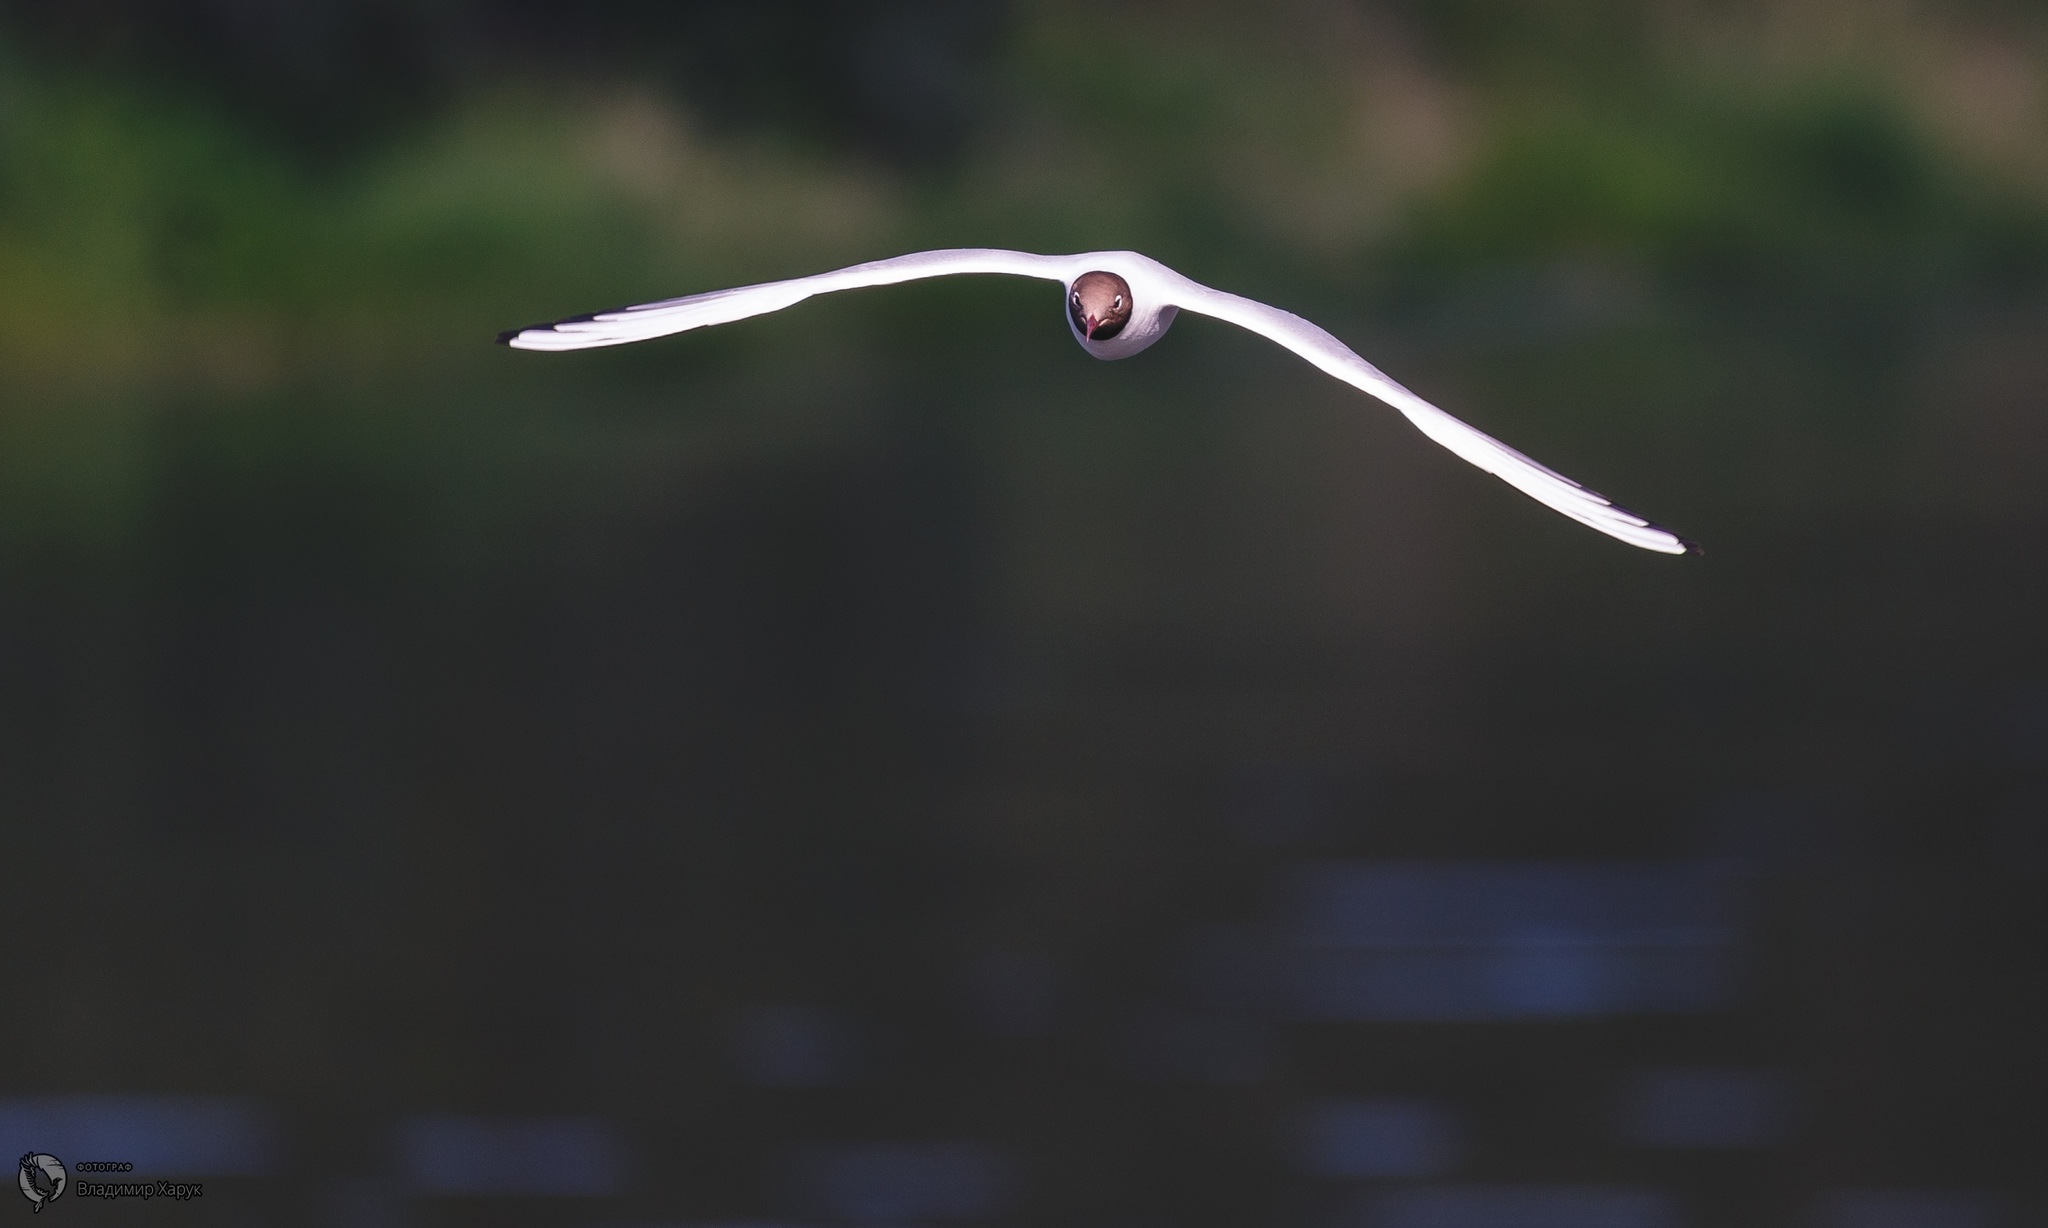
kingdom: Animalia
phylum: Chordata
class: Aves
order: Charadriiformes
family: Laridae
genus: Chroicocephalus
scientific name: Chroicocephalus ridibundus
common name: Black-headed gull
